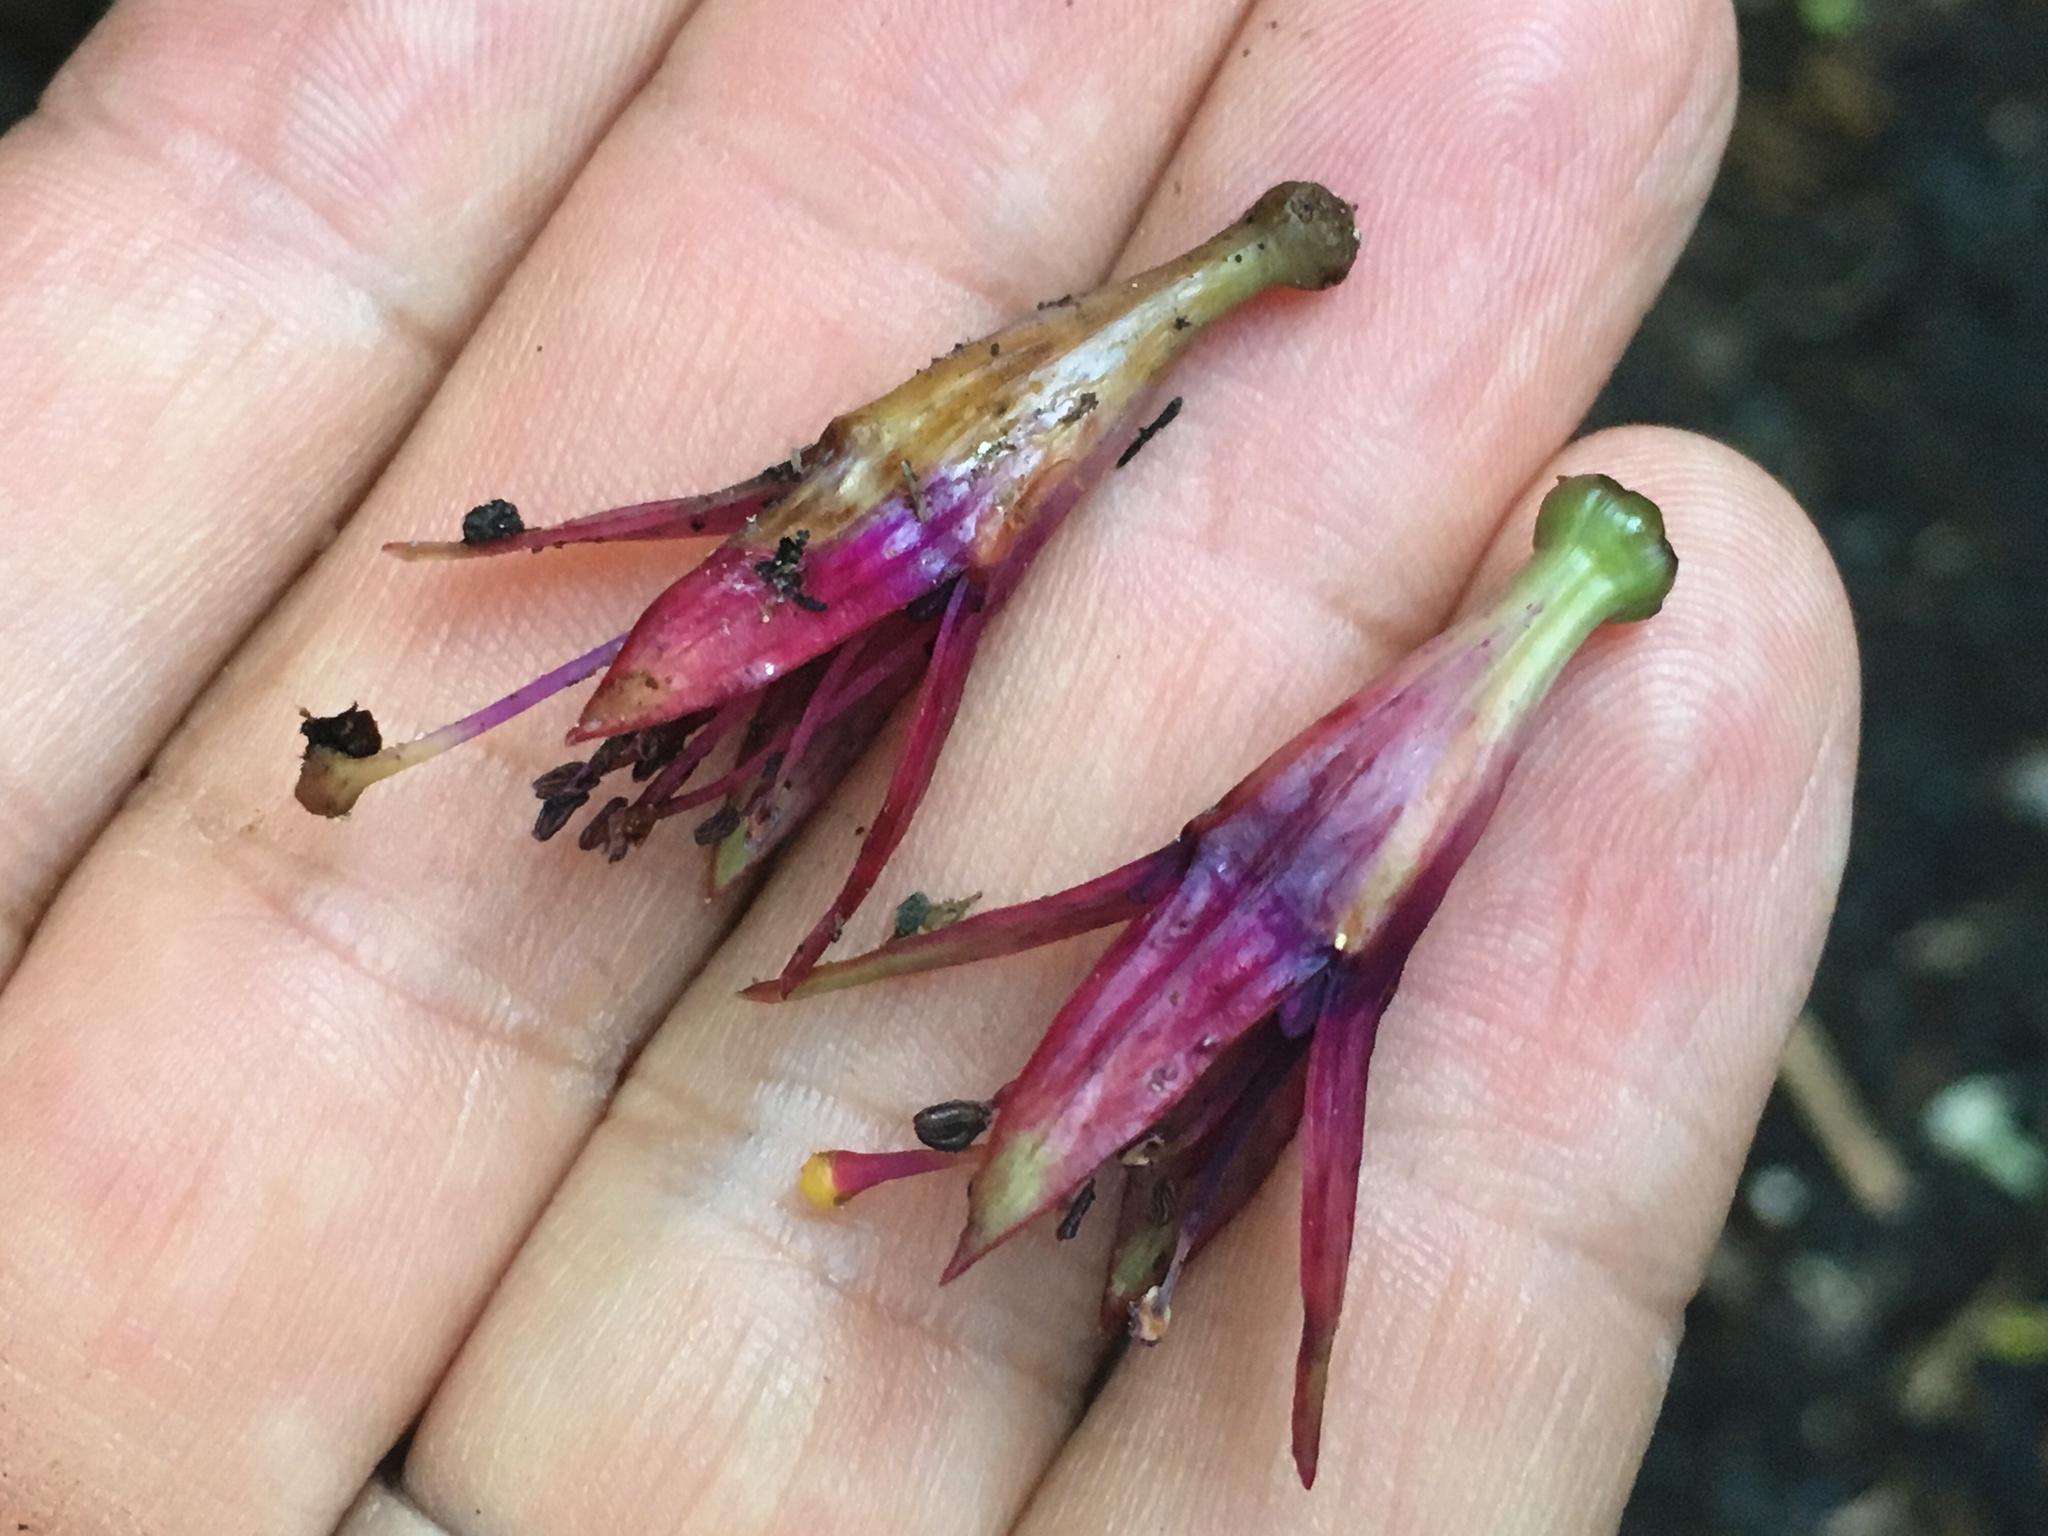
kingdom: Plantae
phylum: Tracheophyta
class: Magnoliopsida
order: Myrtales
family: Onagraceae
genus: Fuchsia
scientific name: Fuchsia excorticata
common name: Tree fuchsia
